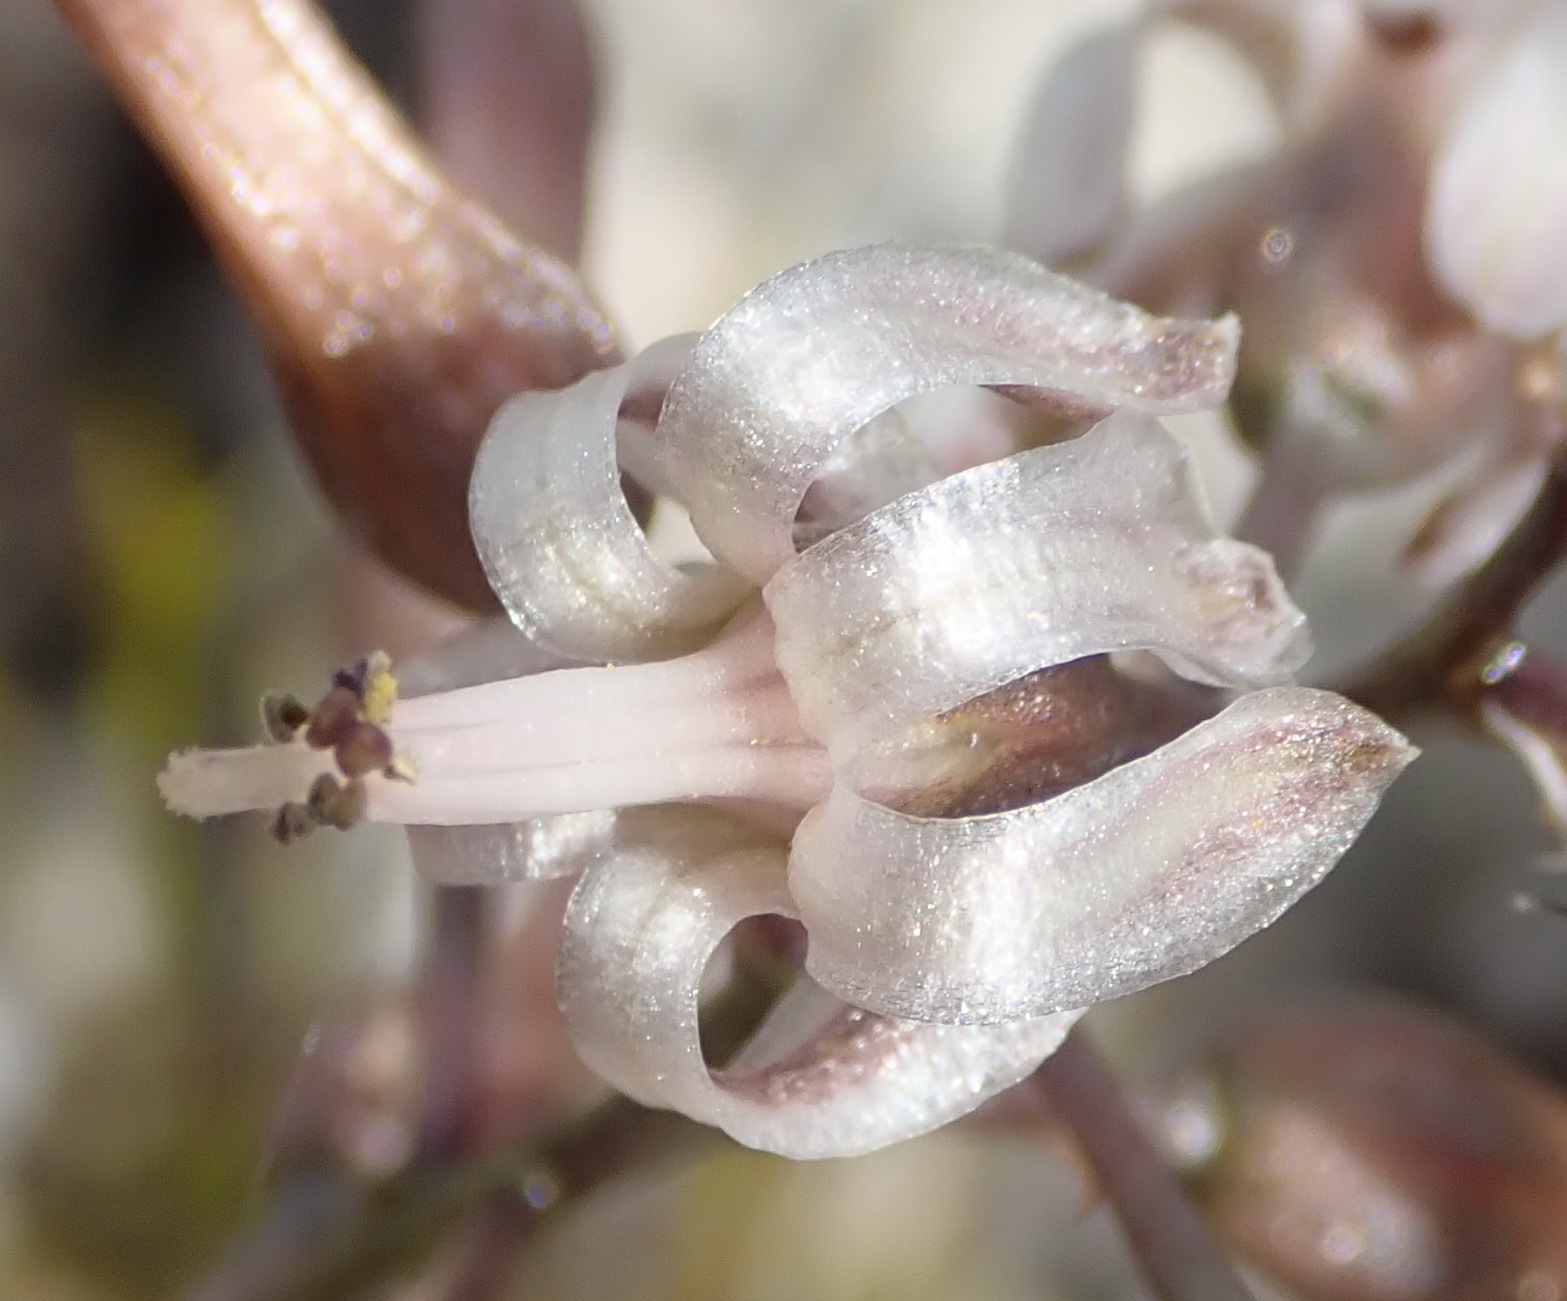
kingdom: Plantae
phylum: Tracheophyta
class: Liliopsida
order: Asparagales
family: Asparagaceae
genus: Drimia
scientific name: Drimia media
